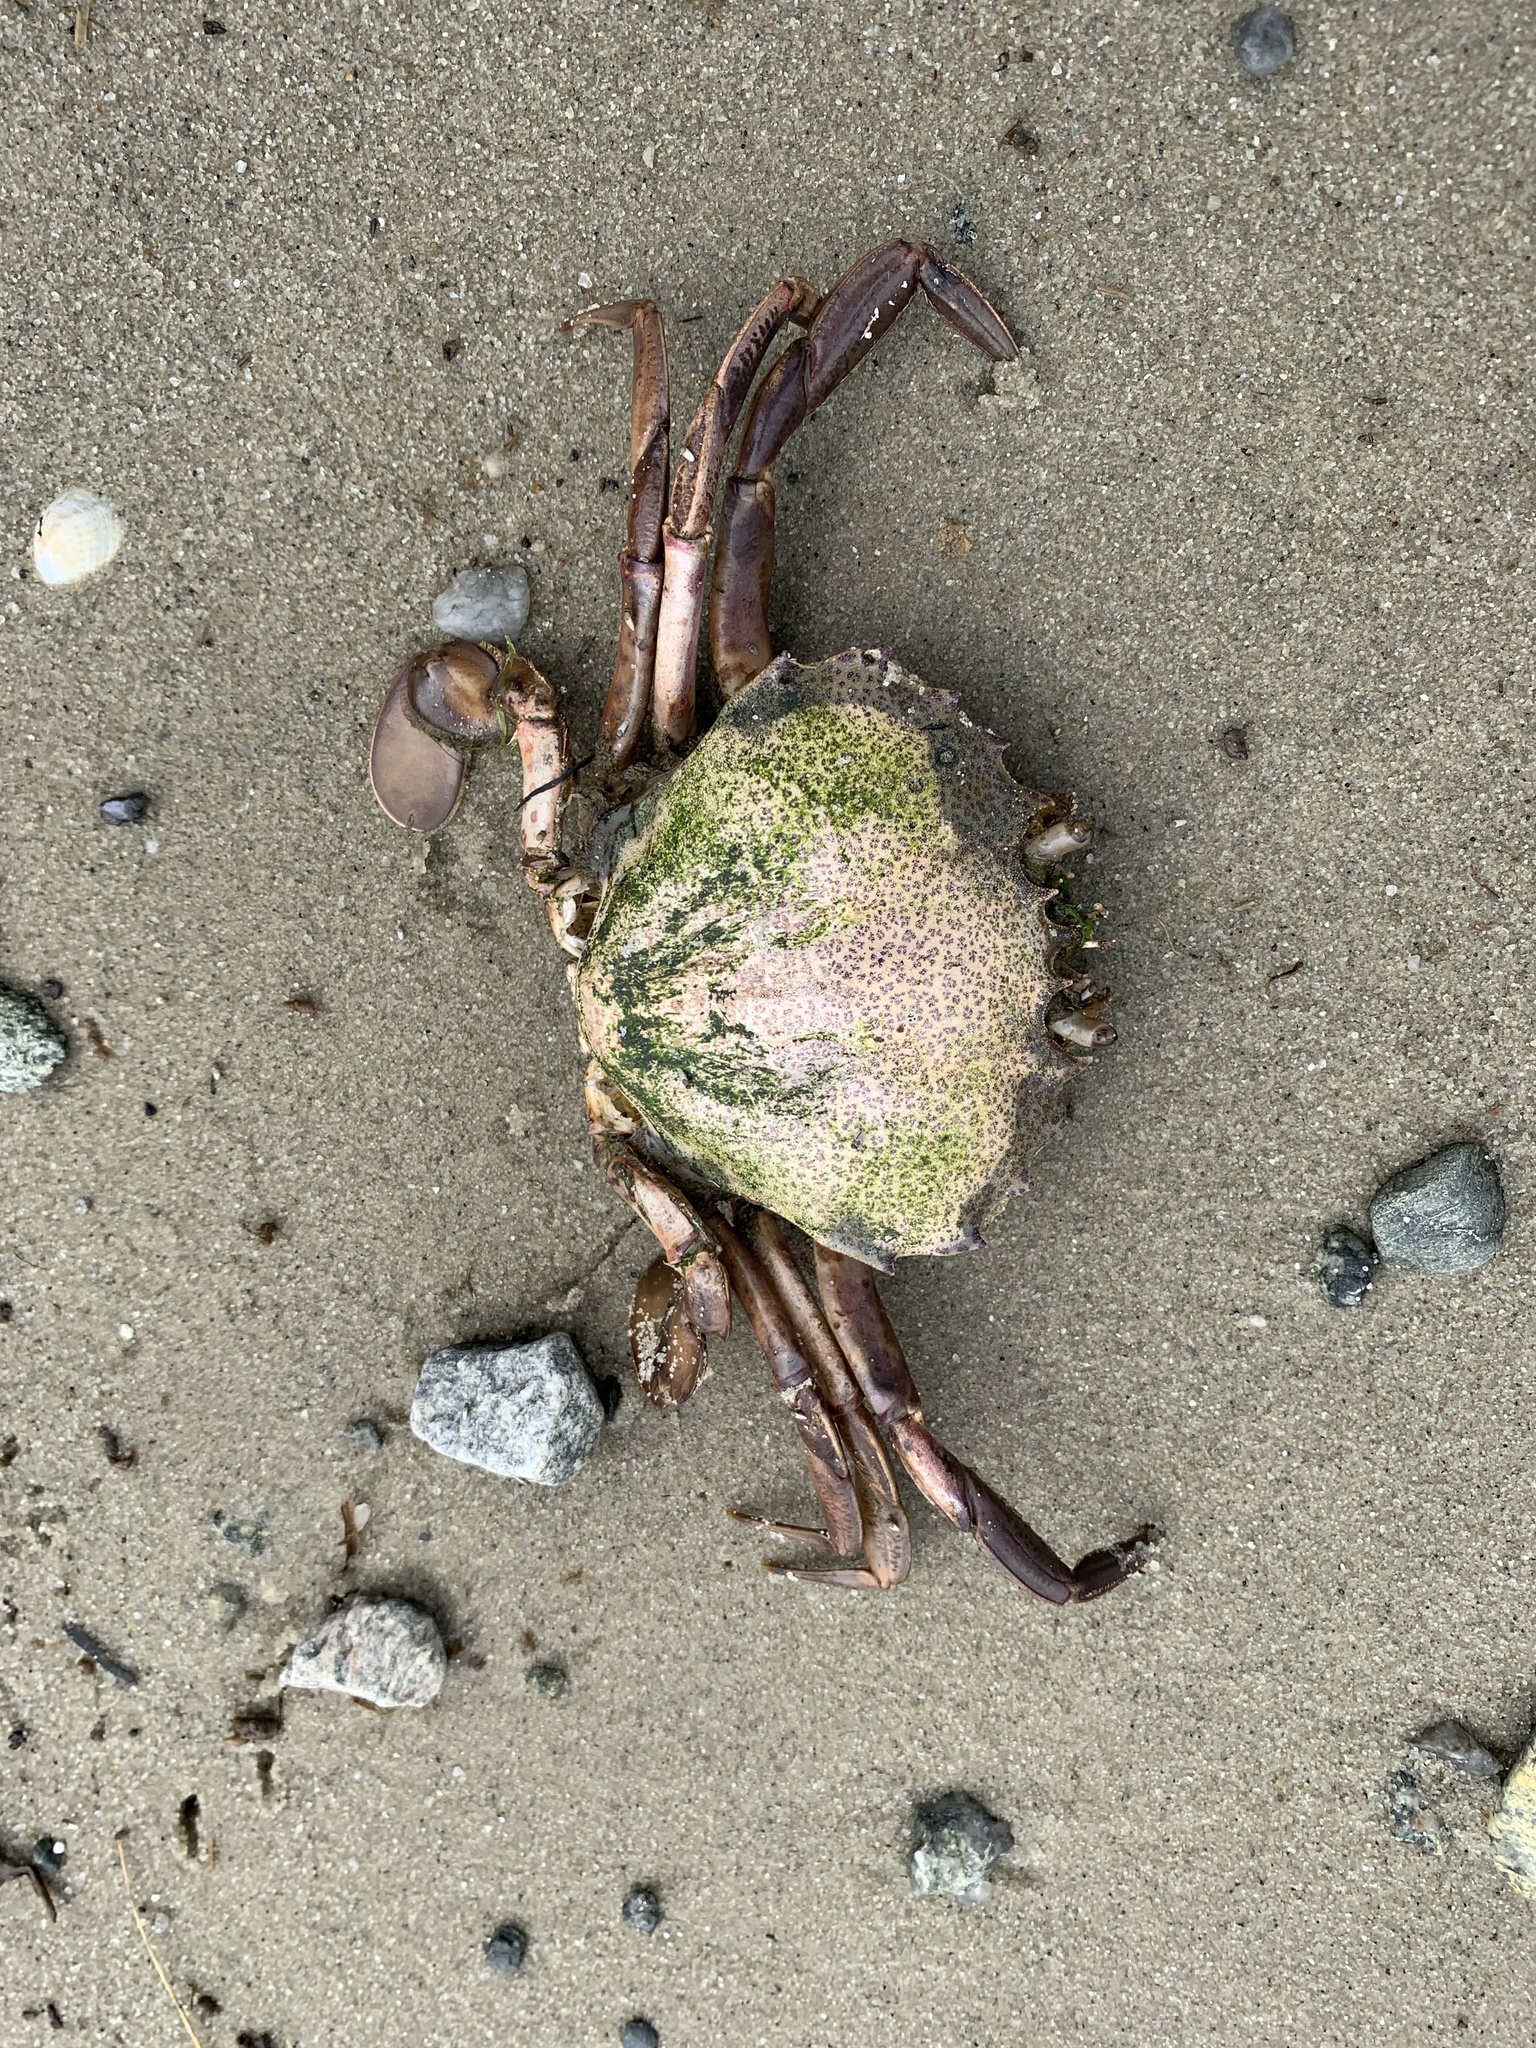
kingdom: Animalia
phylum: Arthropoda
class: Malacostraca
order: Decapoda
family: Ovalipidae
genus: Ovalipes
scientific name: Ovalipes ocellatus
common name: Lady crab
